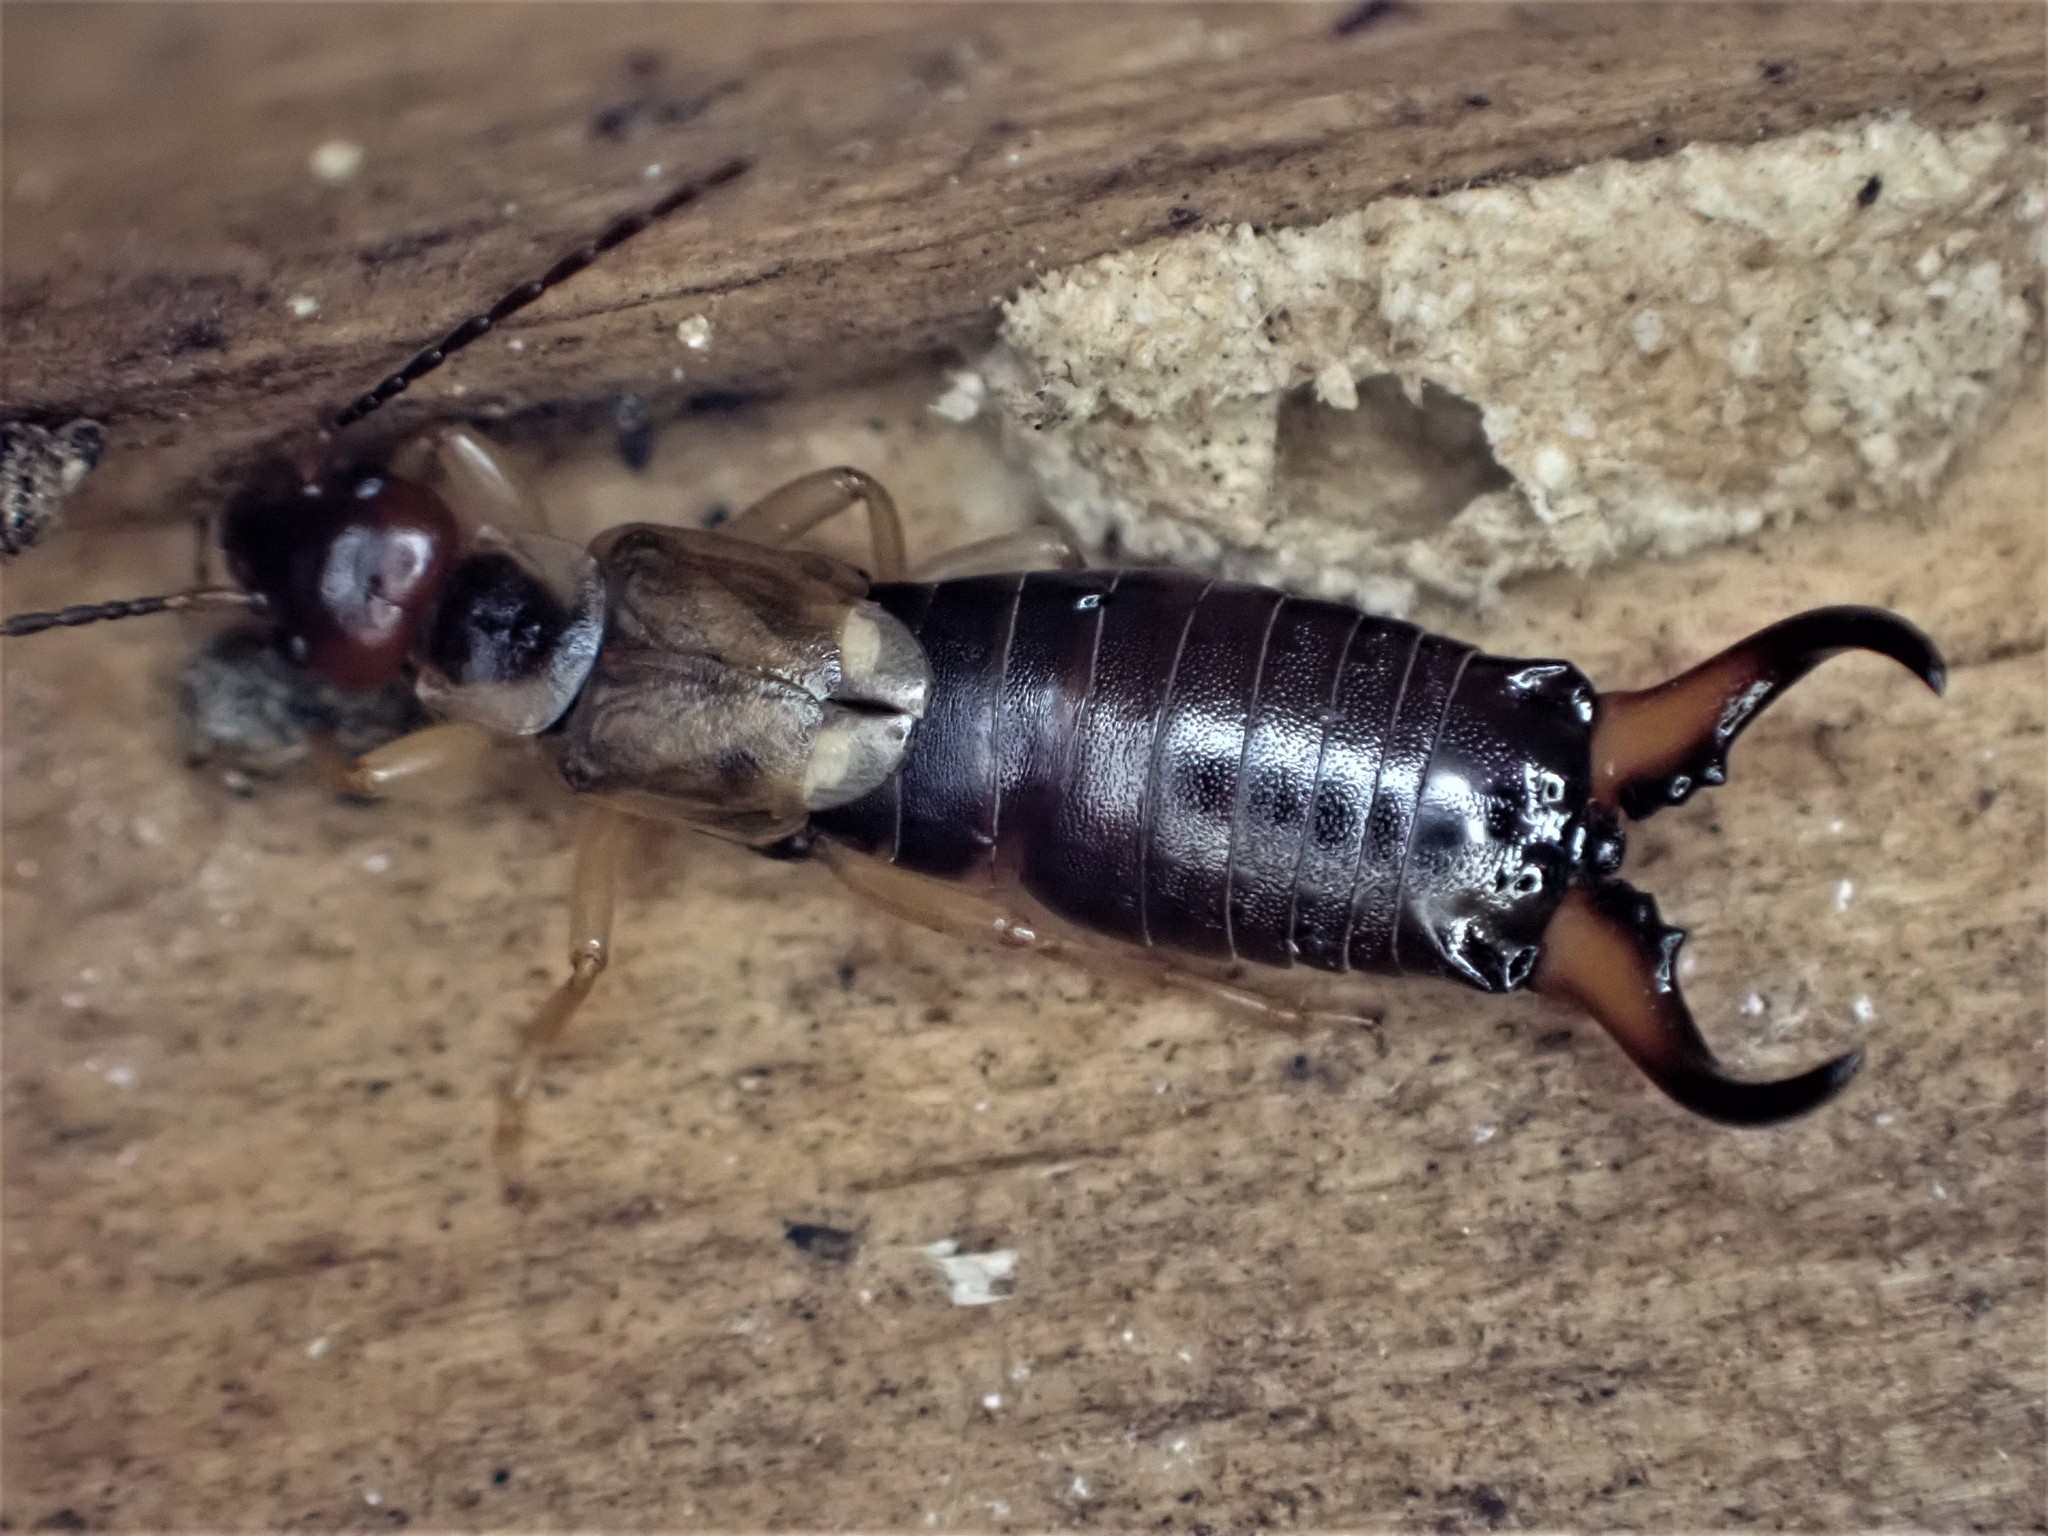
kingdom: Animalia
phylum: Arthropoda
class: Insecta
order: Dermaptera
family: Forficulidae
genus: Forficula
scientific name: Forficula
